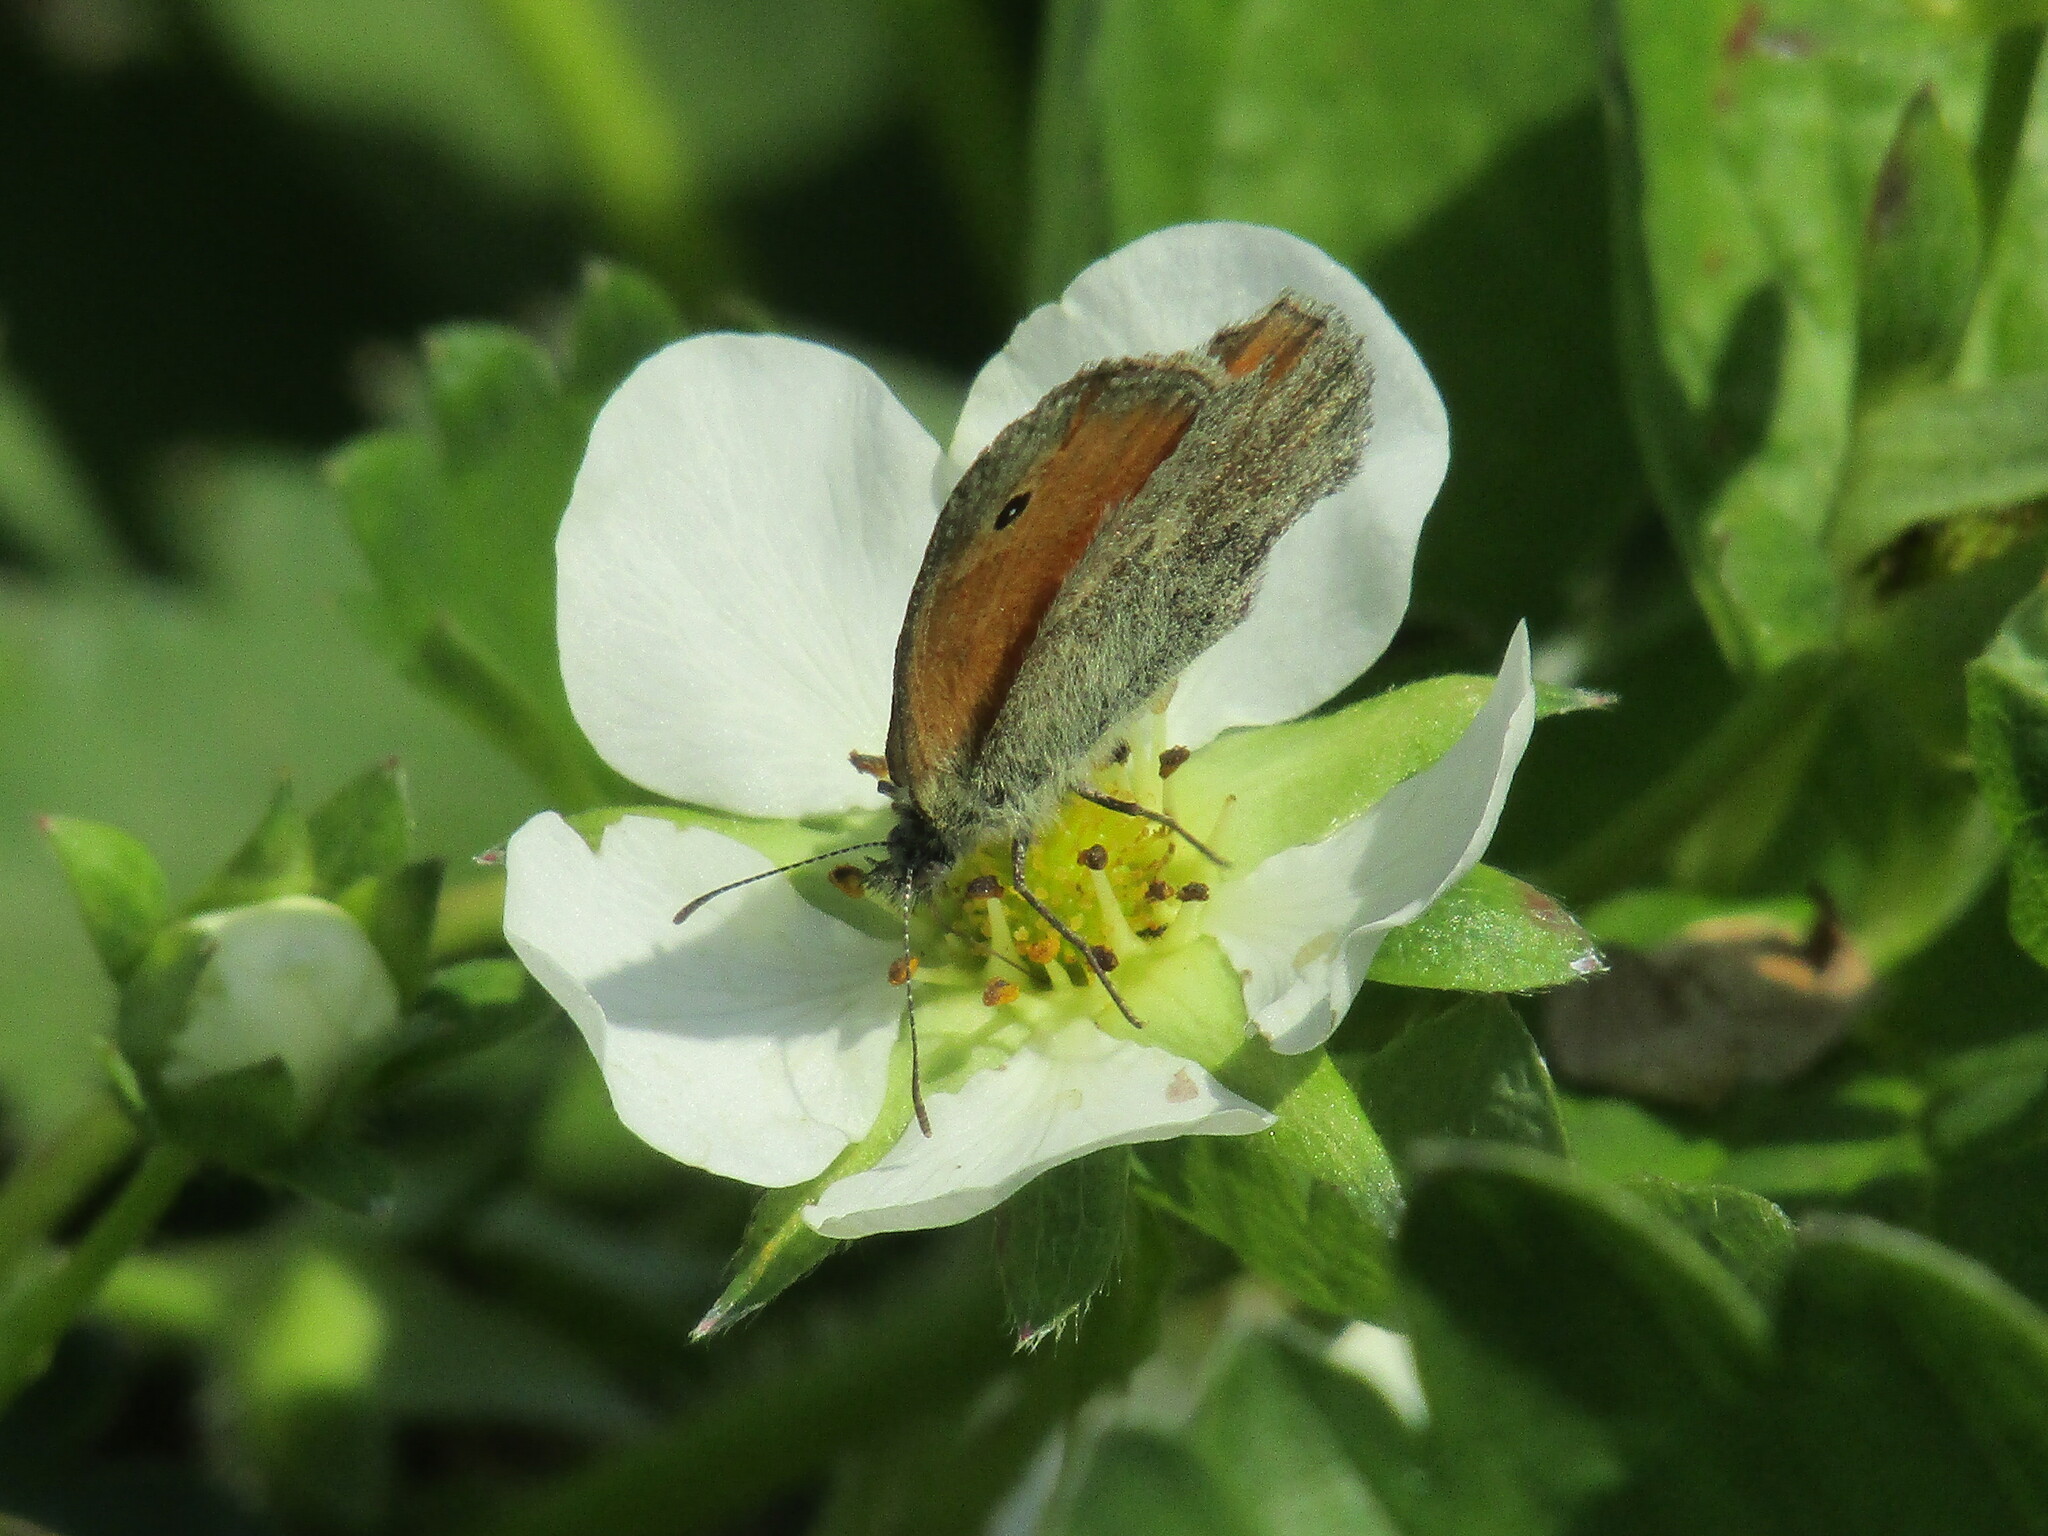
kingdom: Animalia
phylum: Arthropoda
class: Insecta
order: Lepidoptera
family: Nymphalidae
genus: Coenonympha
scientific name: Coenonympha pamphilus
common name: Small heath
